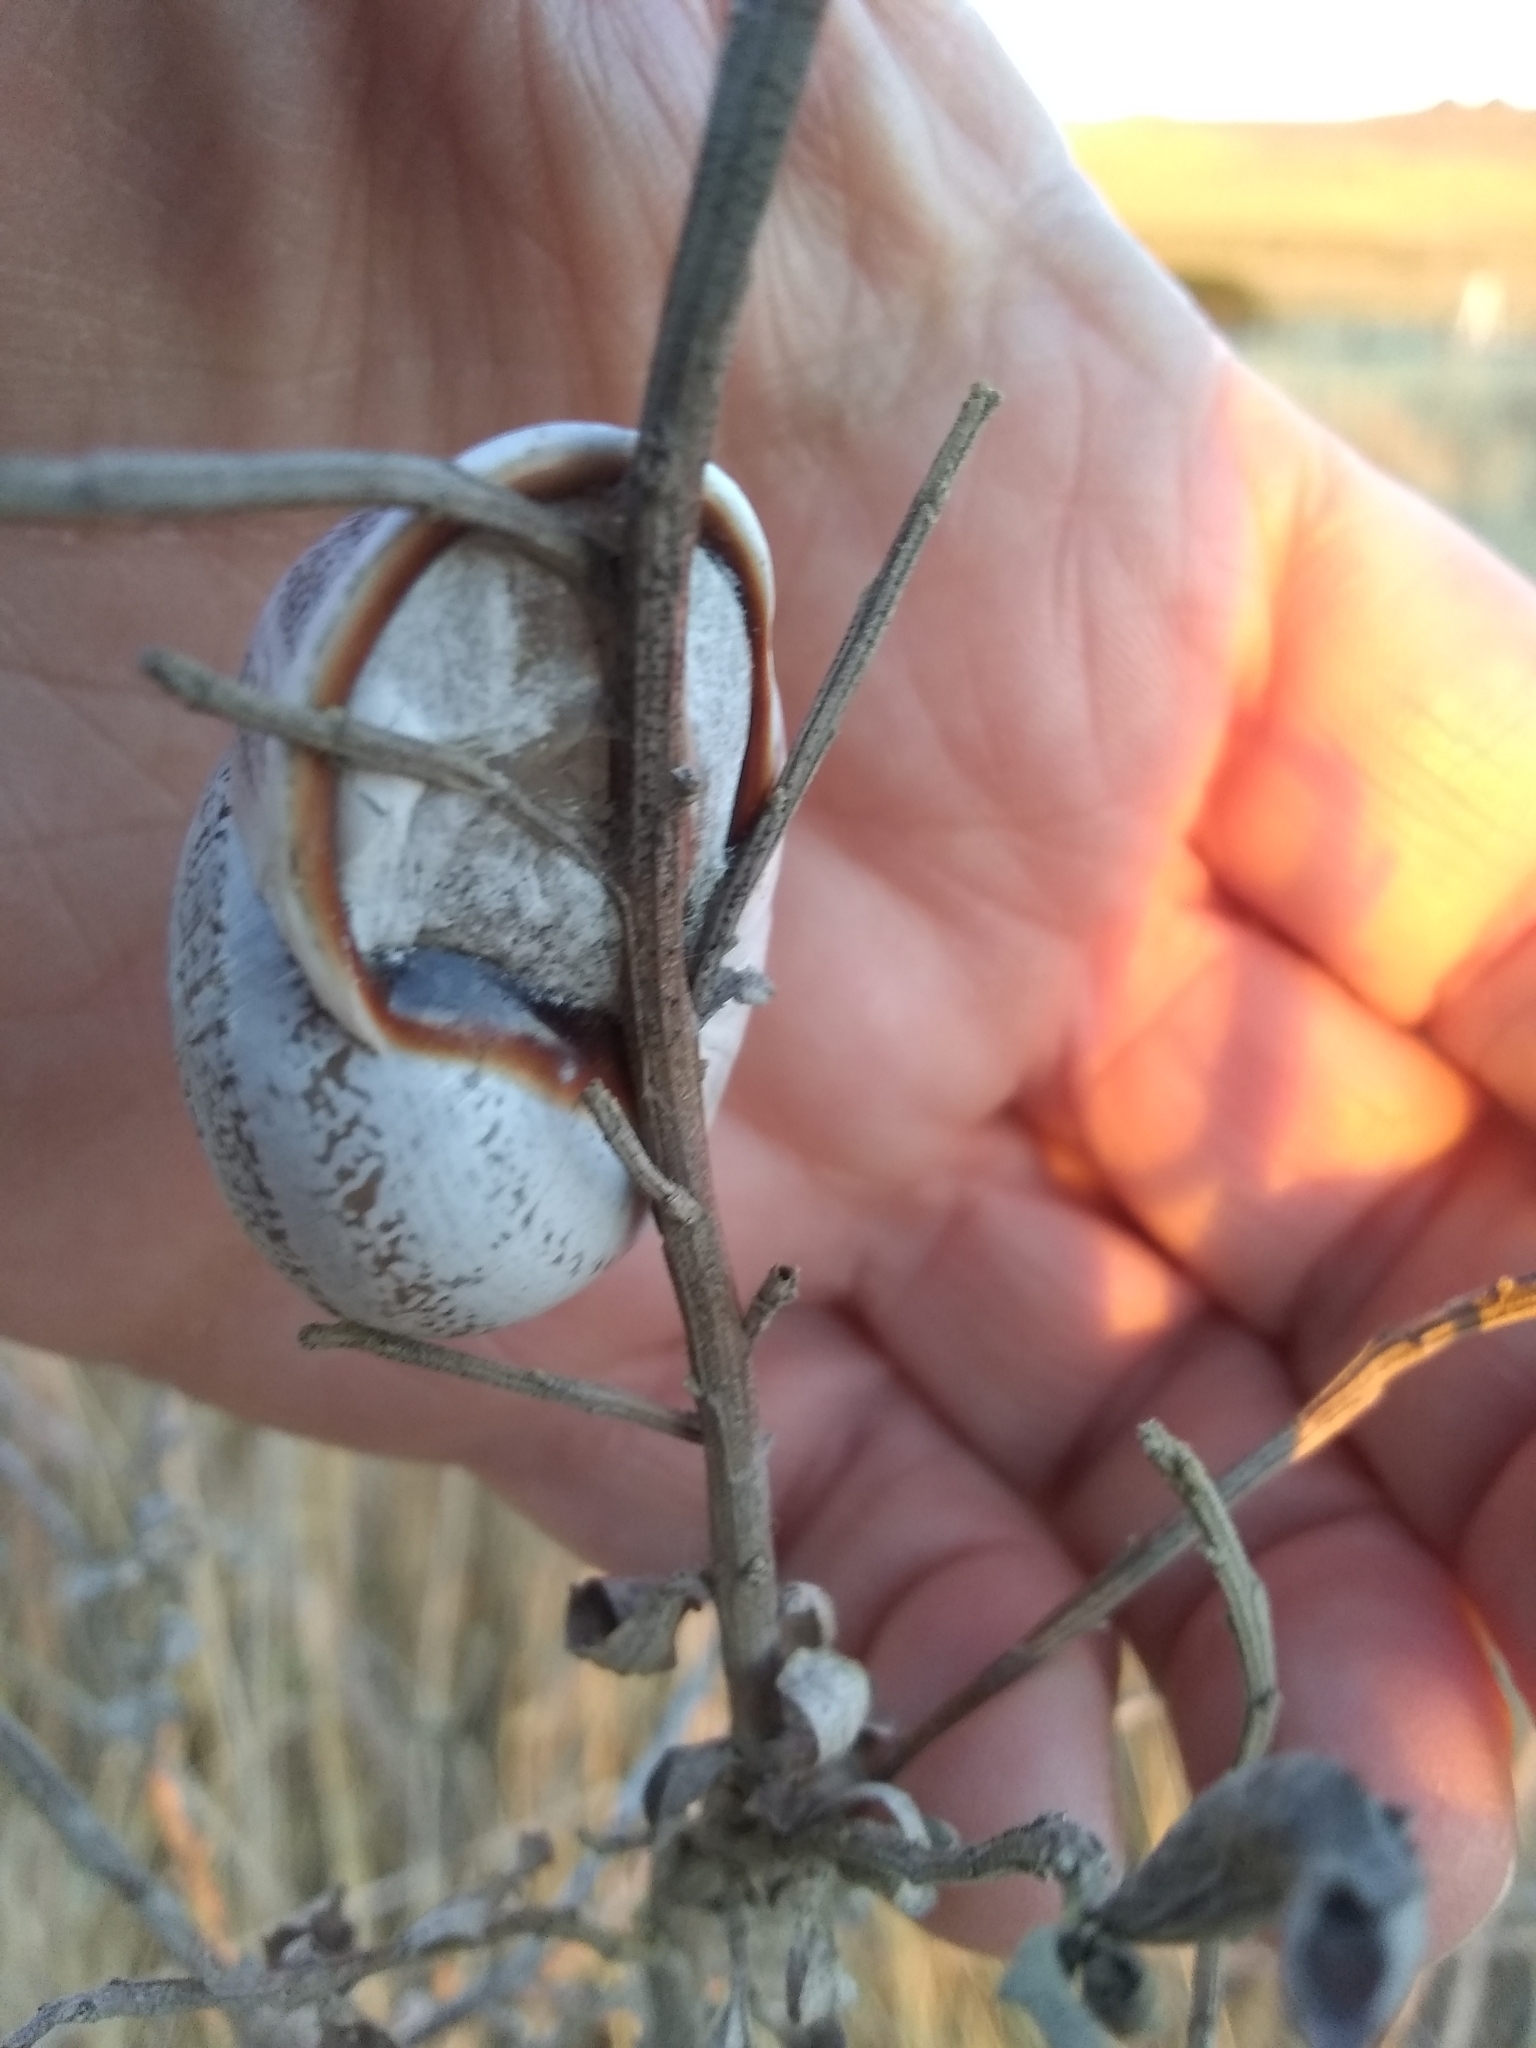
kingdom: Animalia
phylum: Mollusca
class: Gastropoda
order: Stylommatophora
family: Helicidae
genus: Otala
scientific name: Otala lactea
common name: Milk snail
